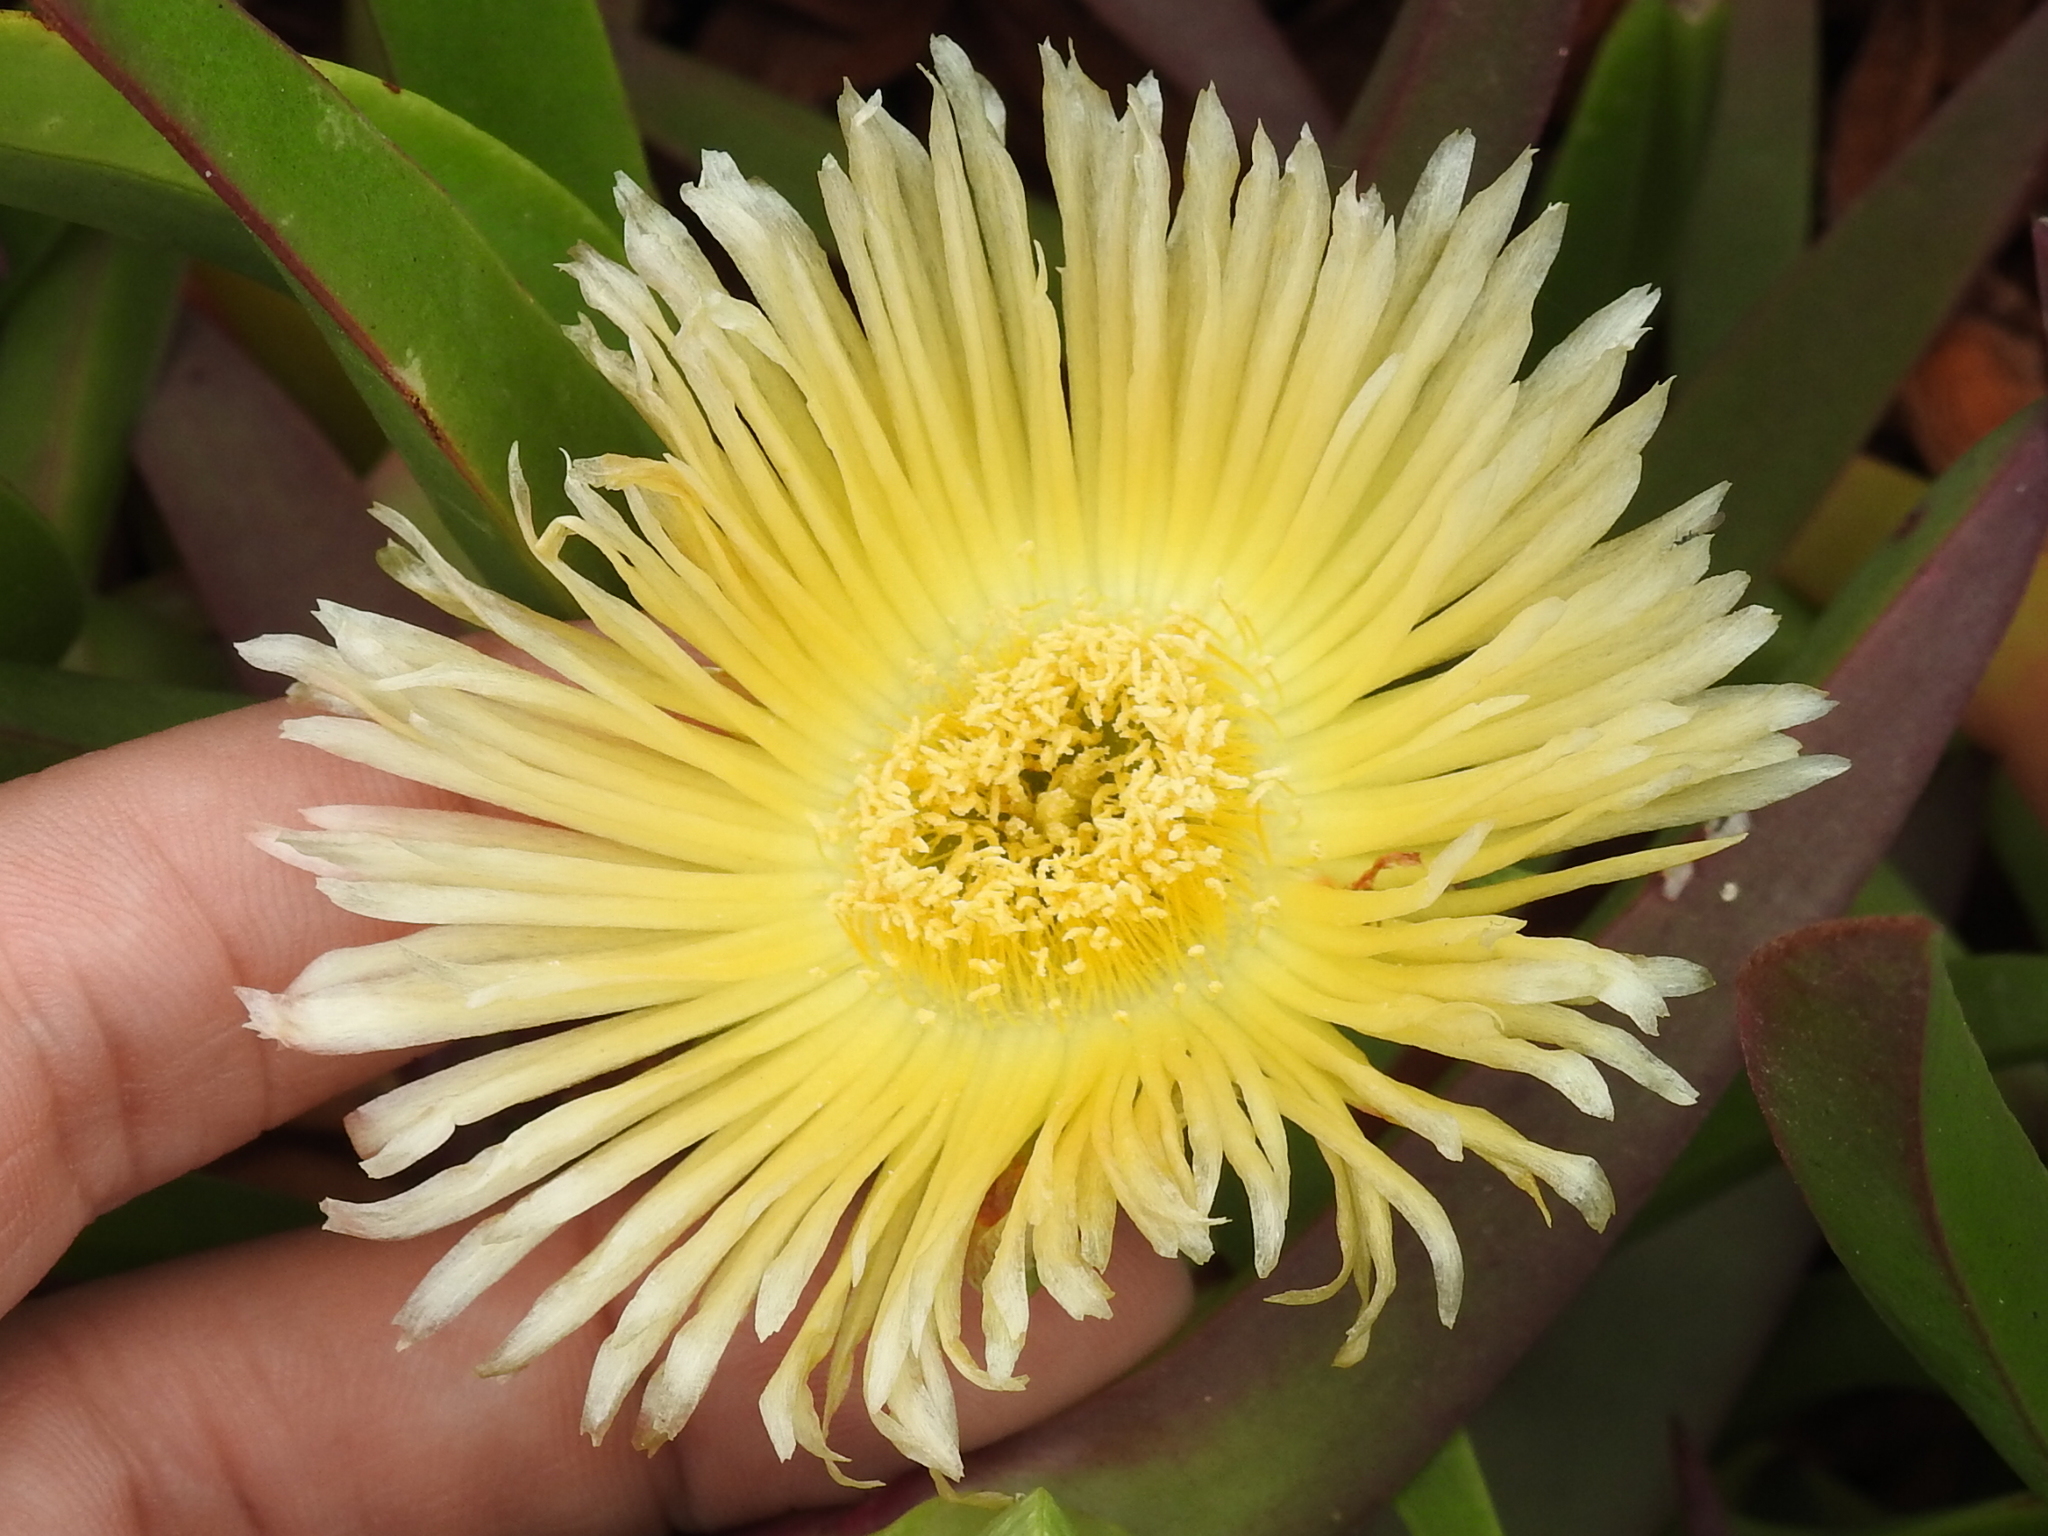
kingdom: Plantae
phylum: Tracheophyta
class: Magnoliopsida
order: Caryophyllales
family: Aizoaceae
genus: Carpobrotus
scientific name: Carpobrotus edulis
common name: Hottentot-fig
